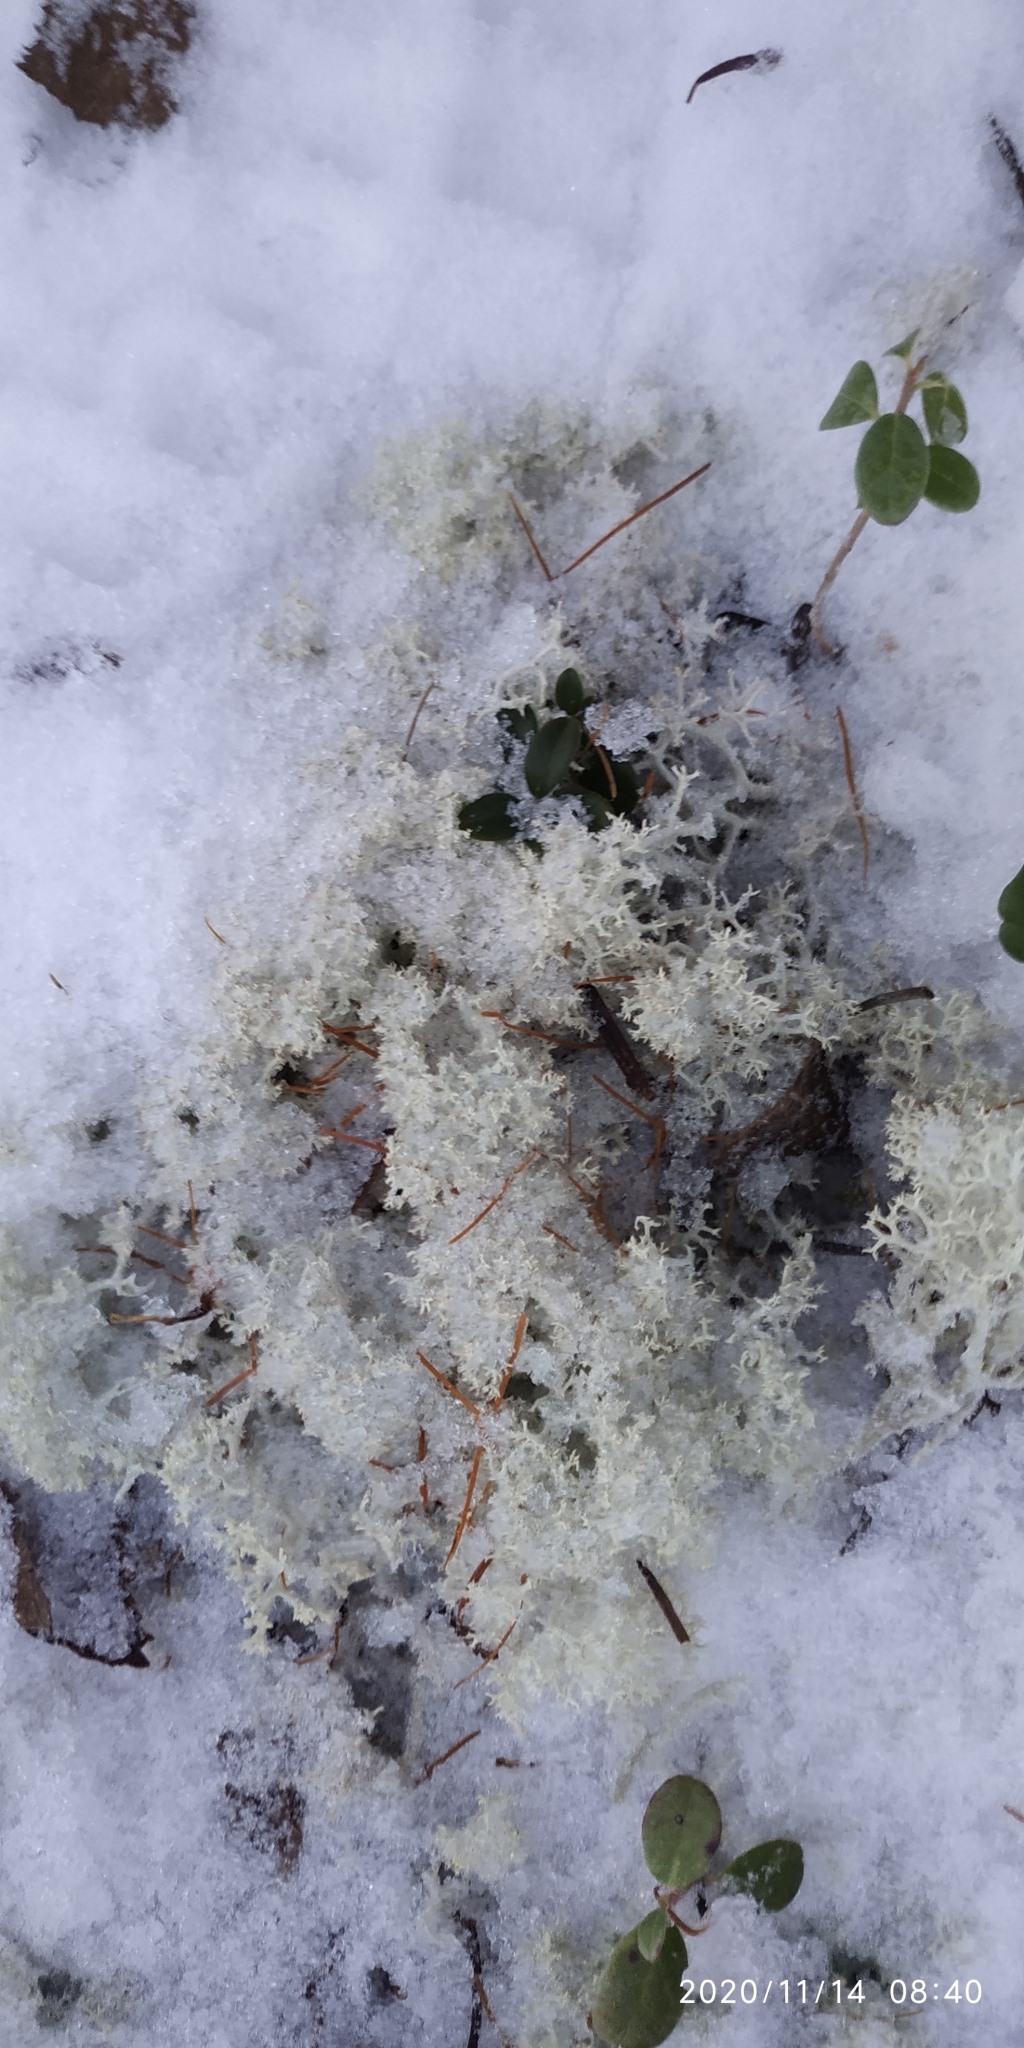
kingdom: Fungi
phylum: Ascomycota
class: Lecanoromycetes
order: Lecanorales
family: Cladoniaceae
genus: Cladonia
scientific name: Cladonia portentosa
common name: Reindeer lichen
